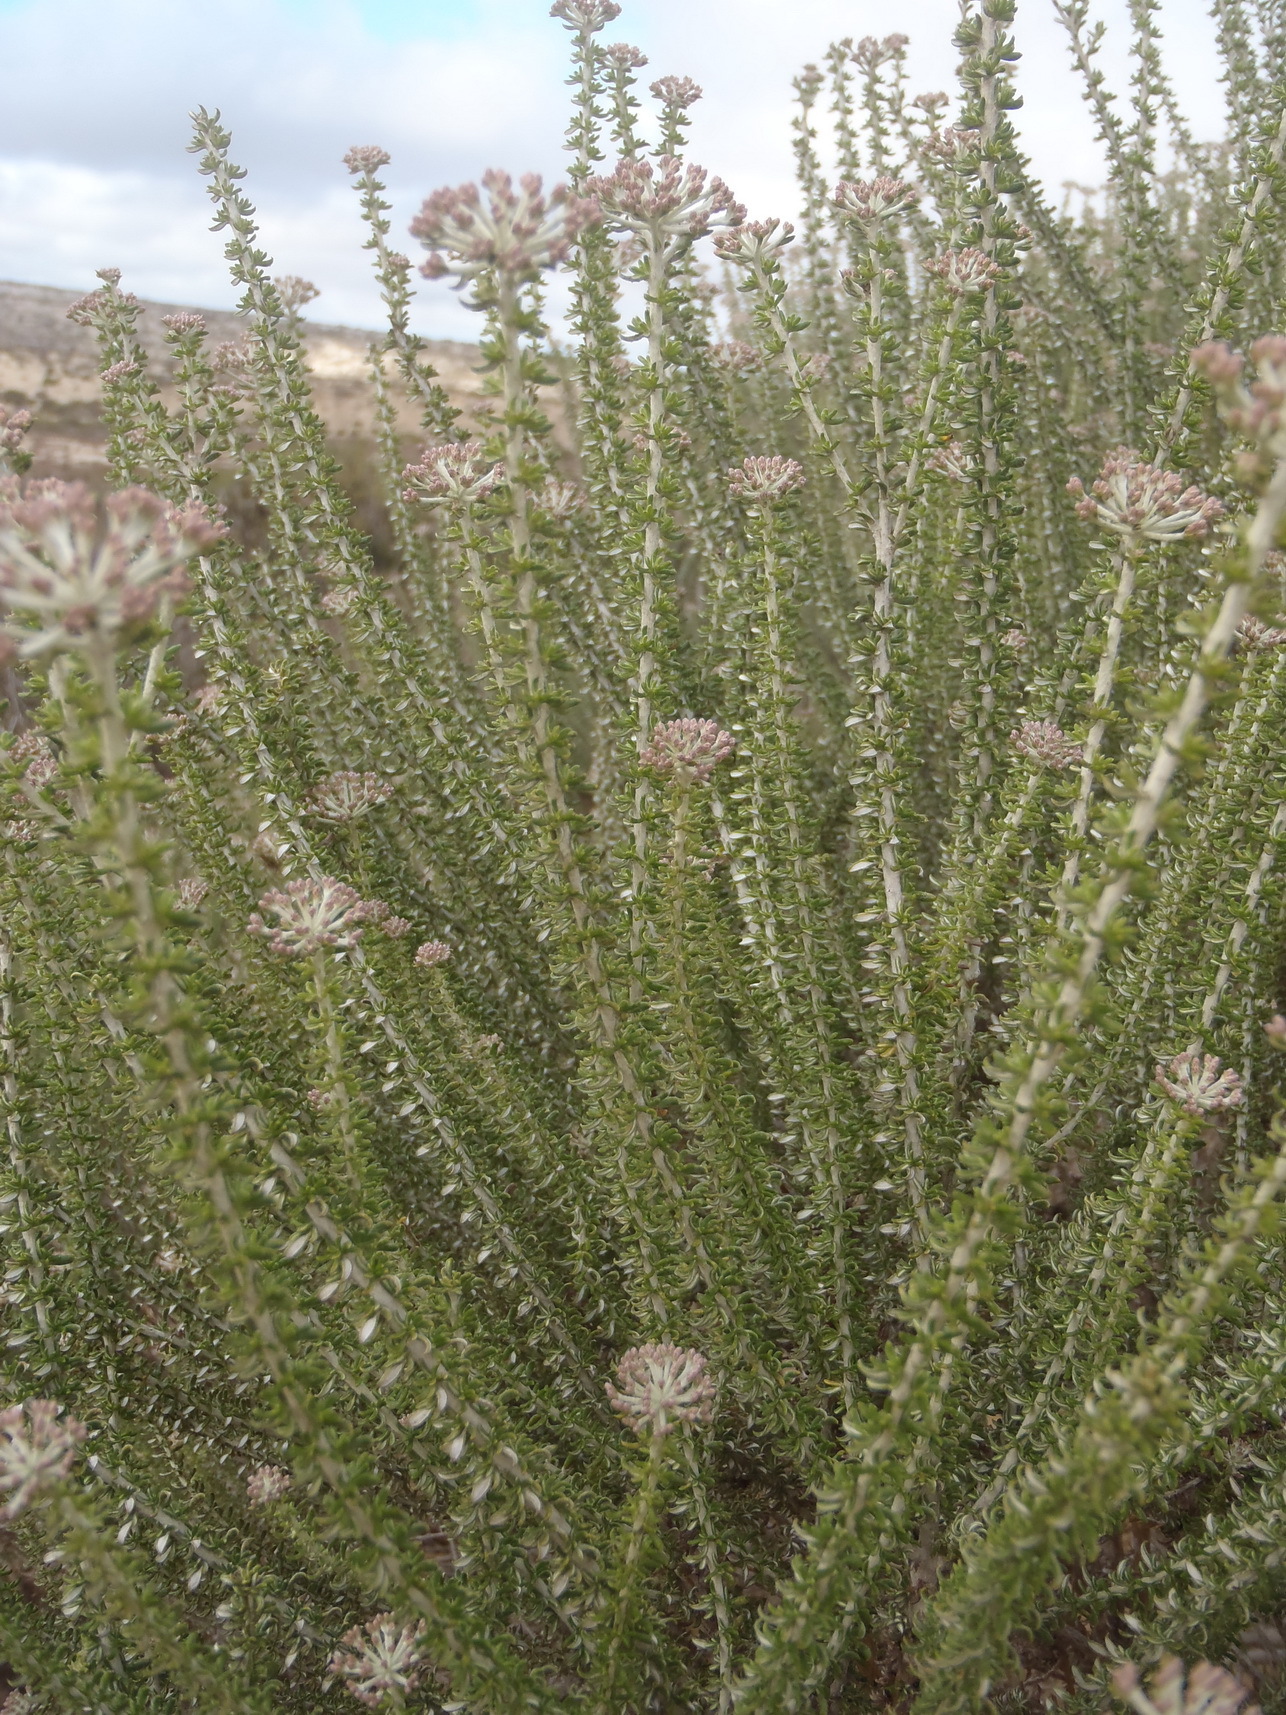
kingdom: Plantae
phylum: Tracheophyta
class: Magnoliopsida
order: Asterales
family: Asteraceae
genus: Metalasia
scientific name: Metalasia muricata
